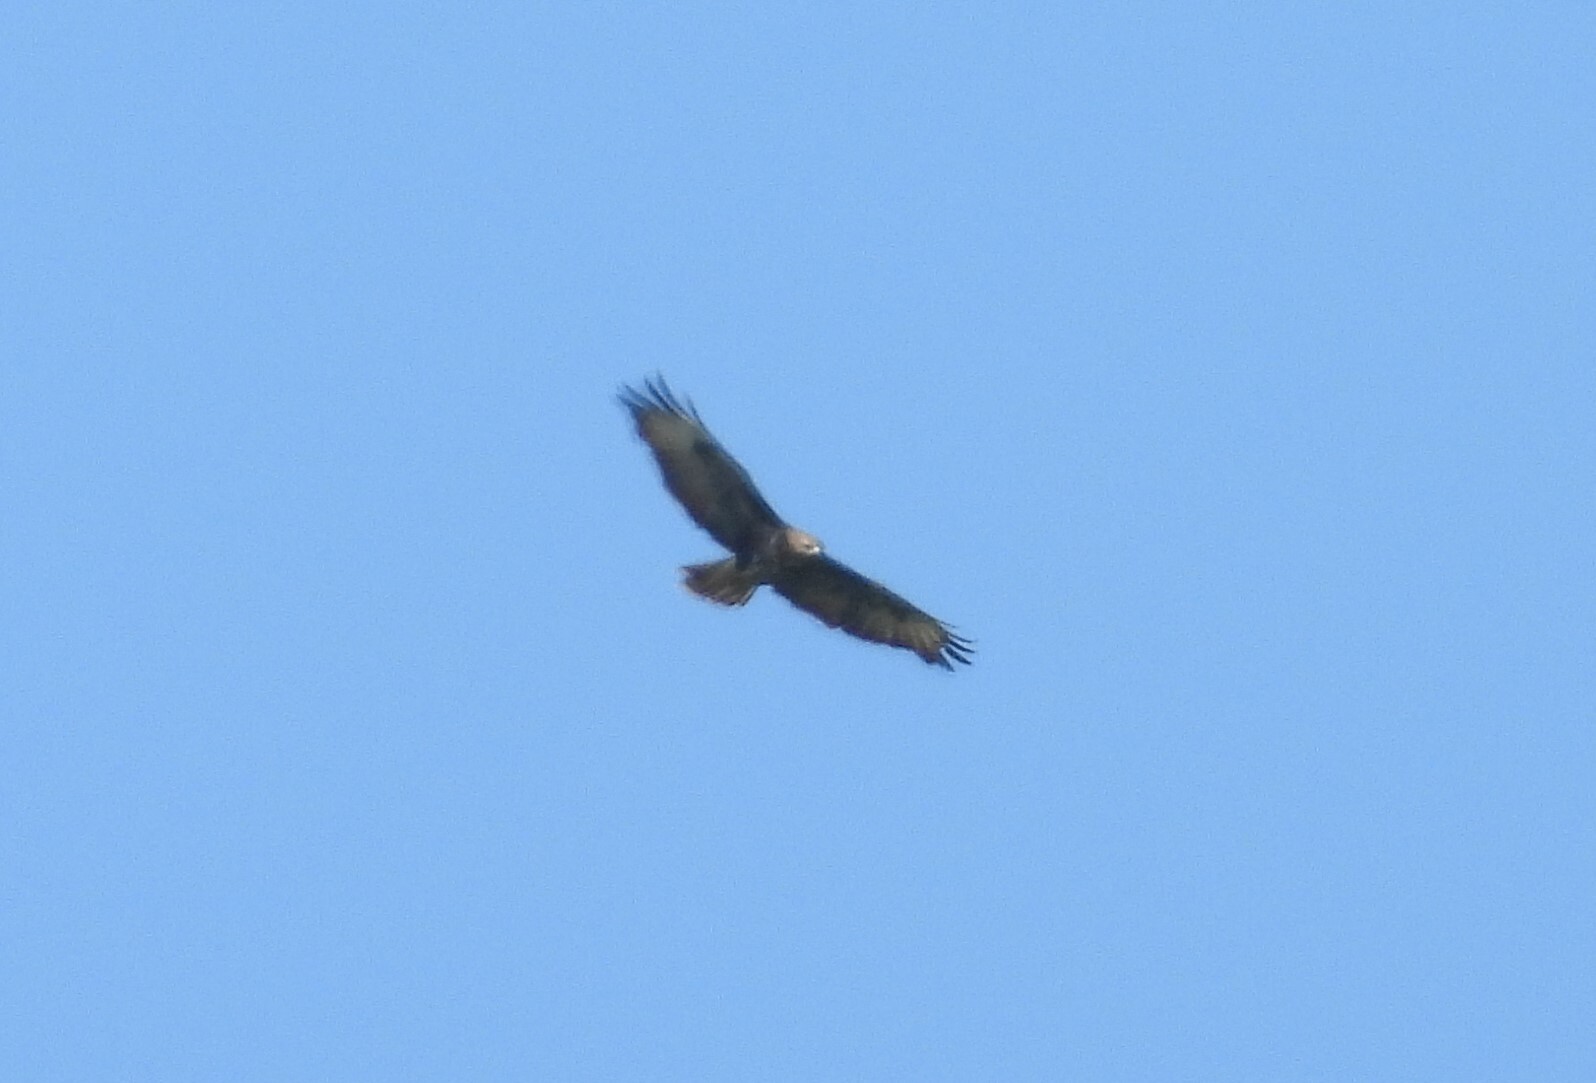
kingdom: Animalia
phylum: Chordata
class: Aves
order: Accipitriformes
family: Accipitridae
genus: Buteo
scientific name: Buteo buteo
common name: Common buzzard
